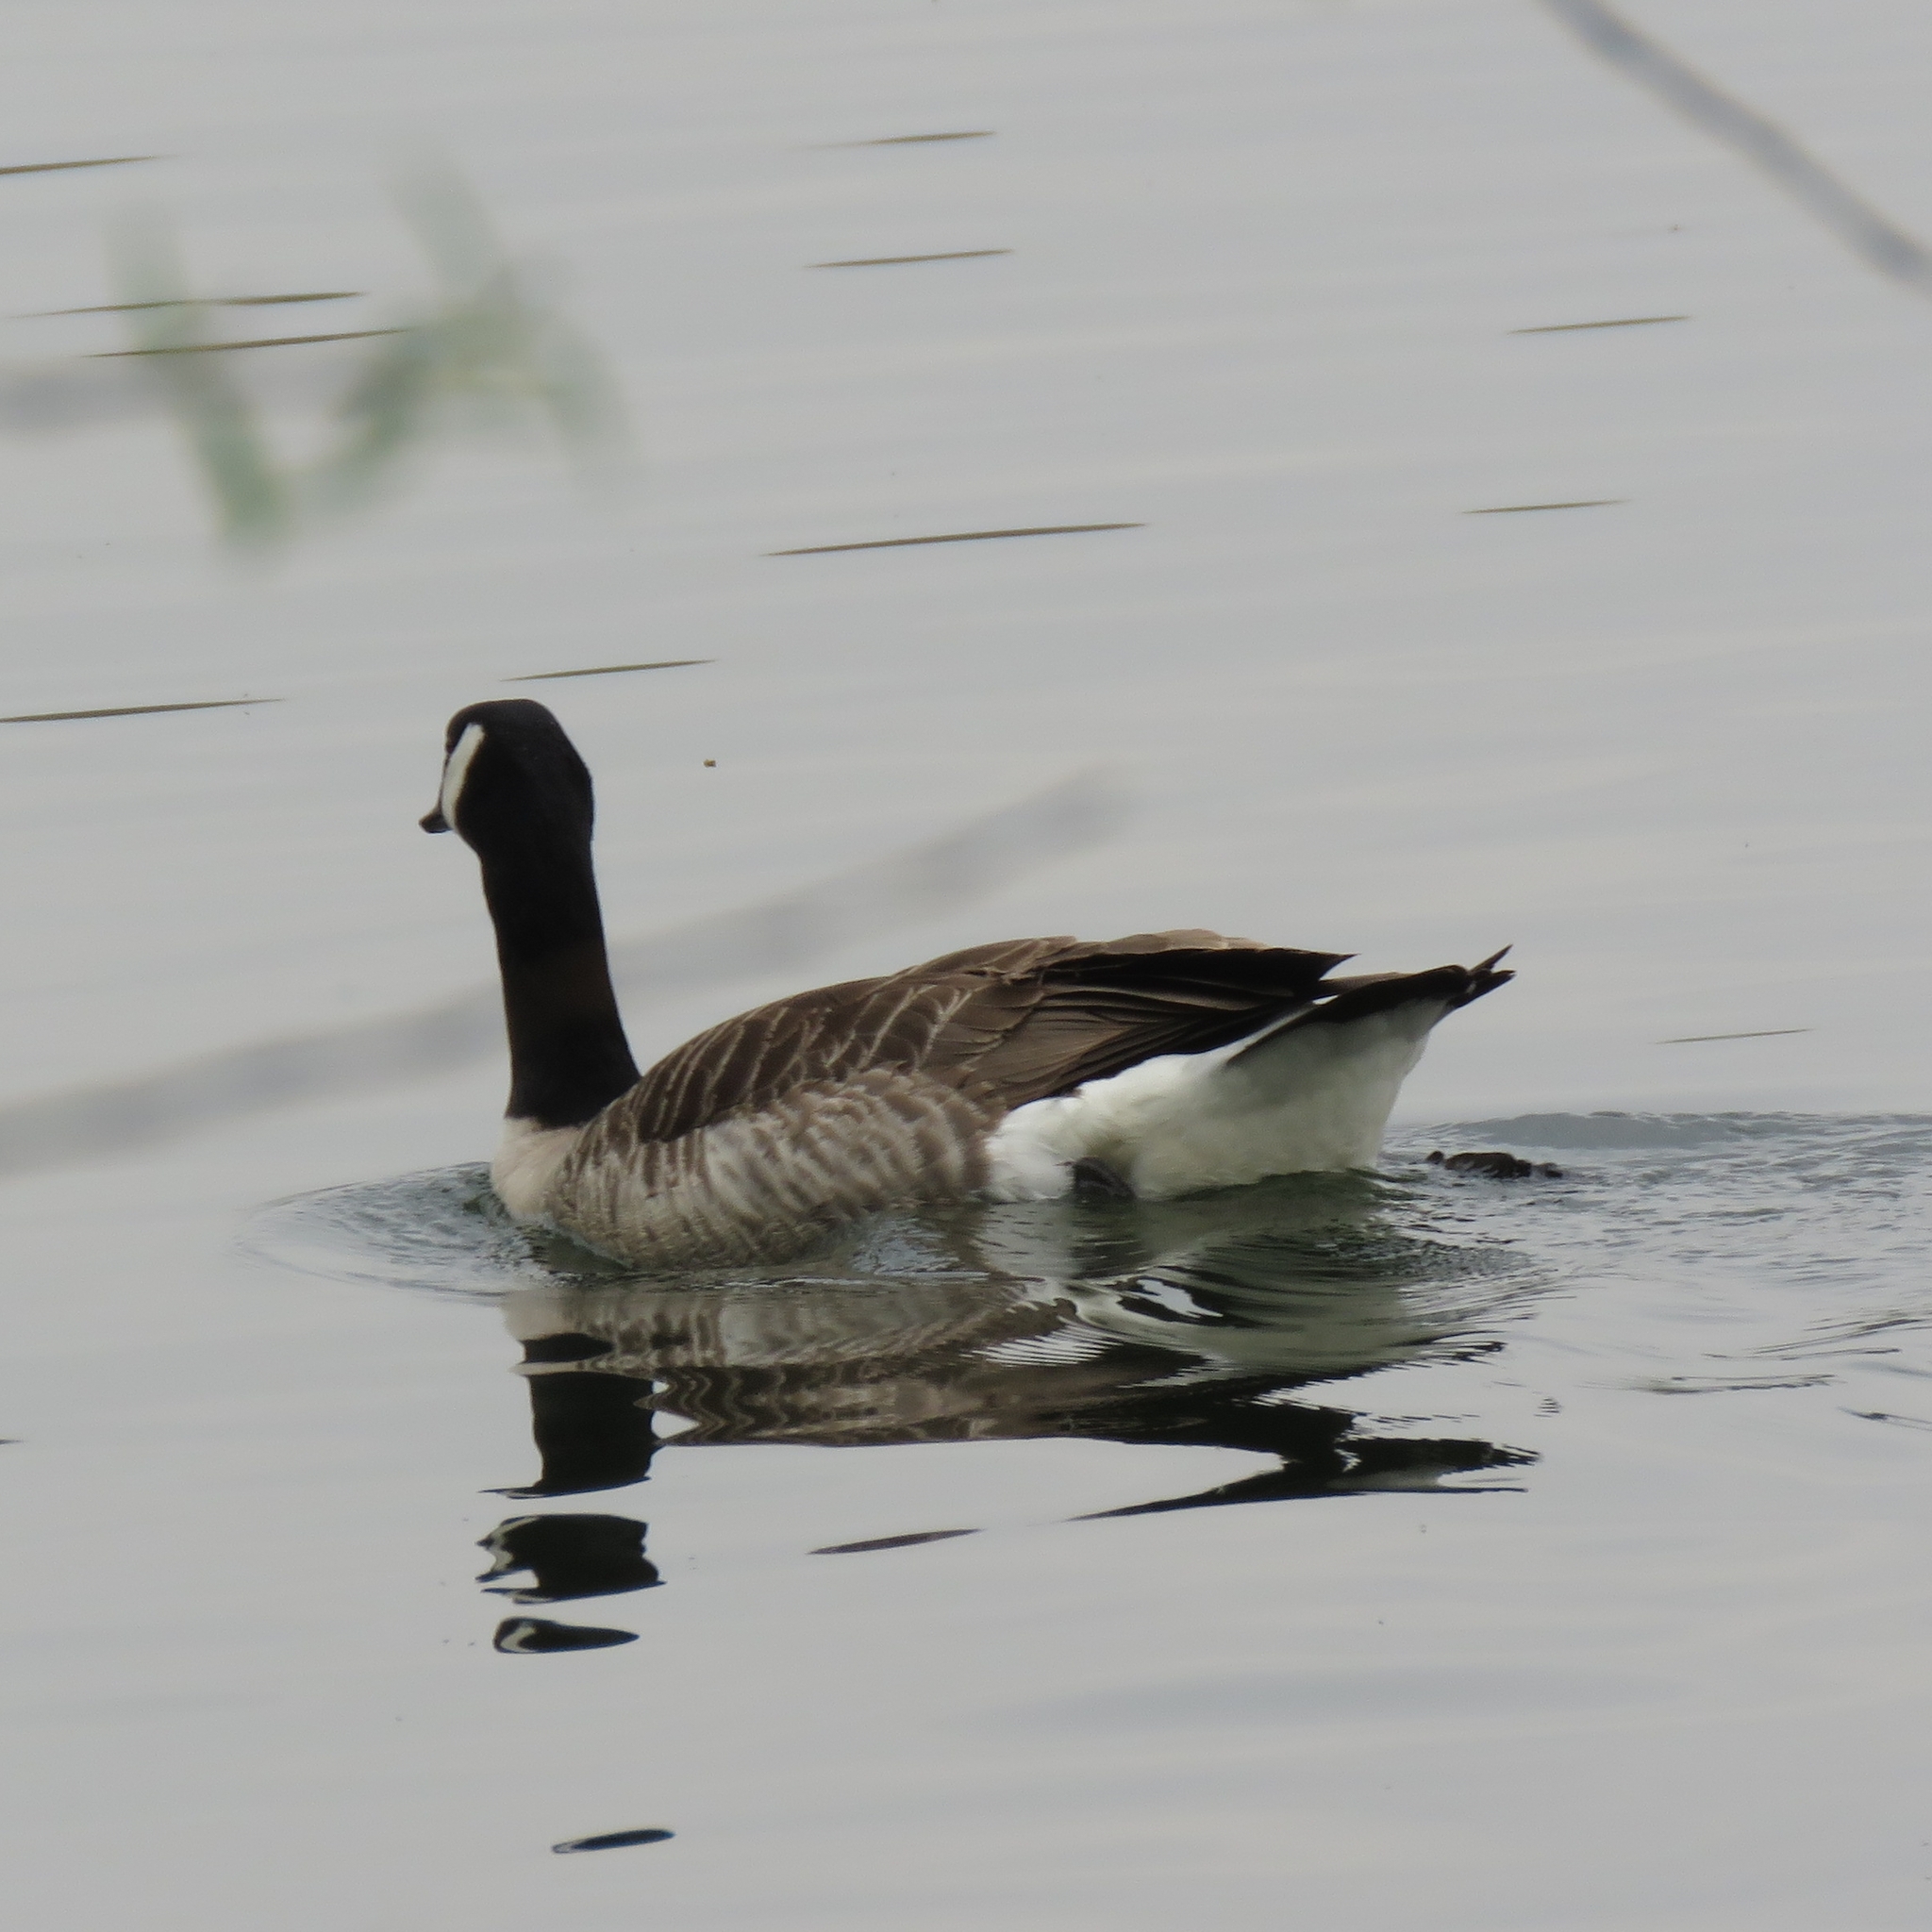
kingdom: Animalia
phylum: Chordata
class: Aves
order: Anseriformes
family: Anatidae
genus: Branta
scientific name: Branta canadensis
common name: Canada goose
